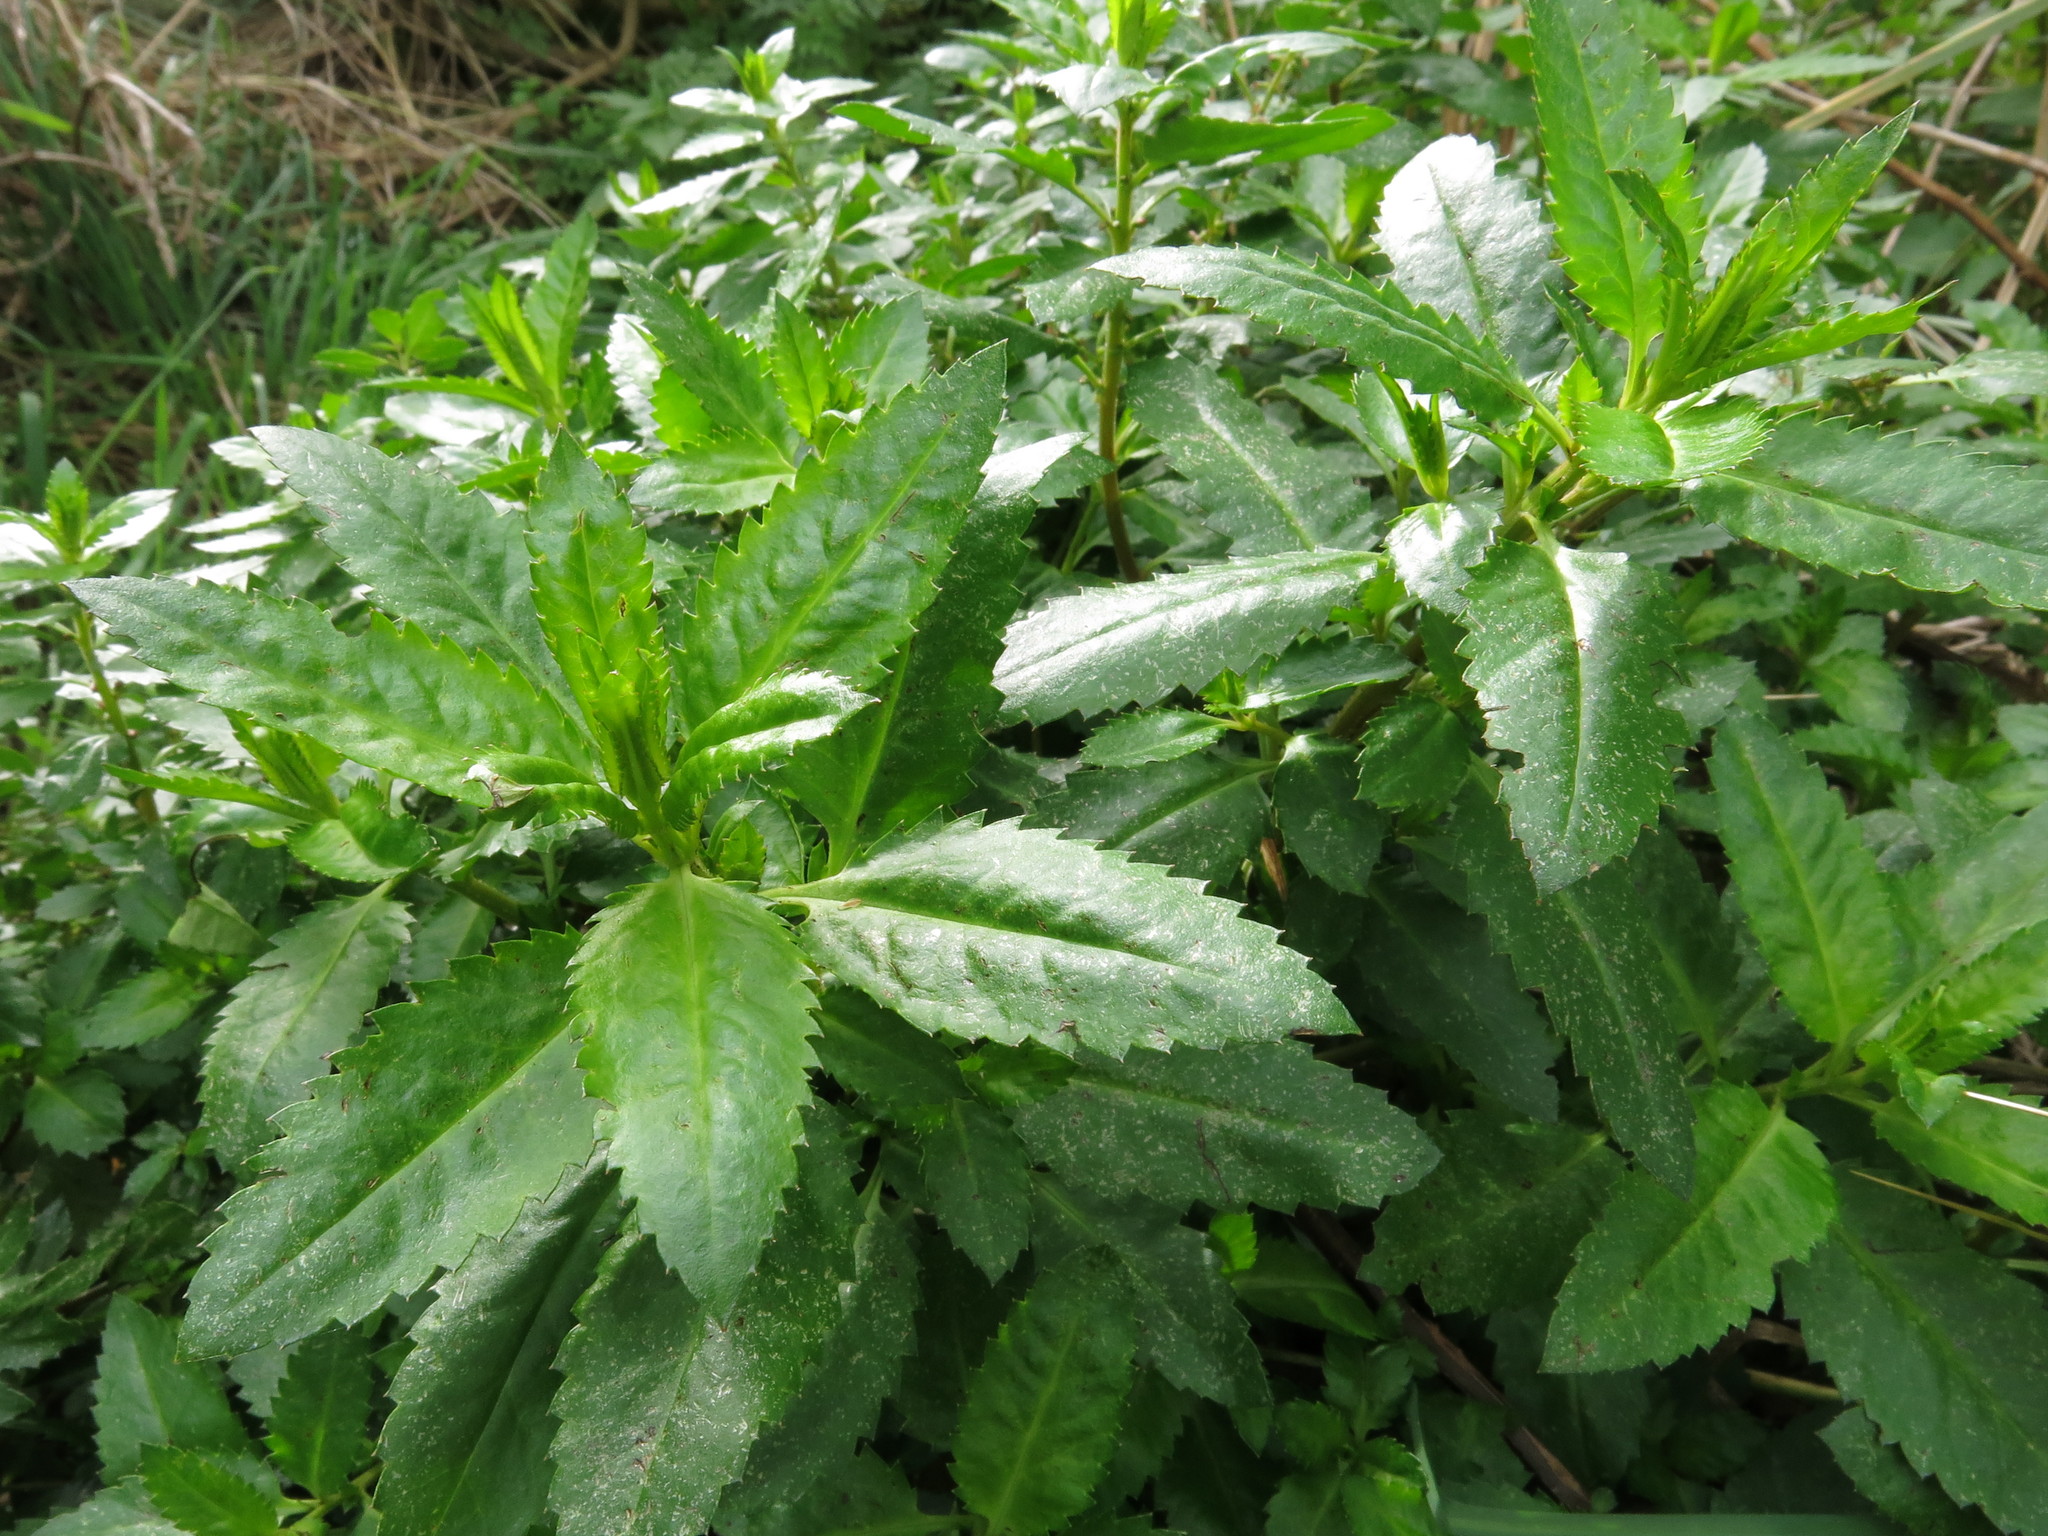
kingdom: Plantae
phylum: Tracheophyta
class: Magnoliopsida
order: Saxifragales
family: Haloragaceae
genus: Haloragis
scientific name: Haloragis erecta
